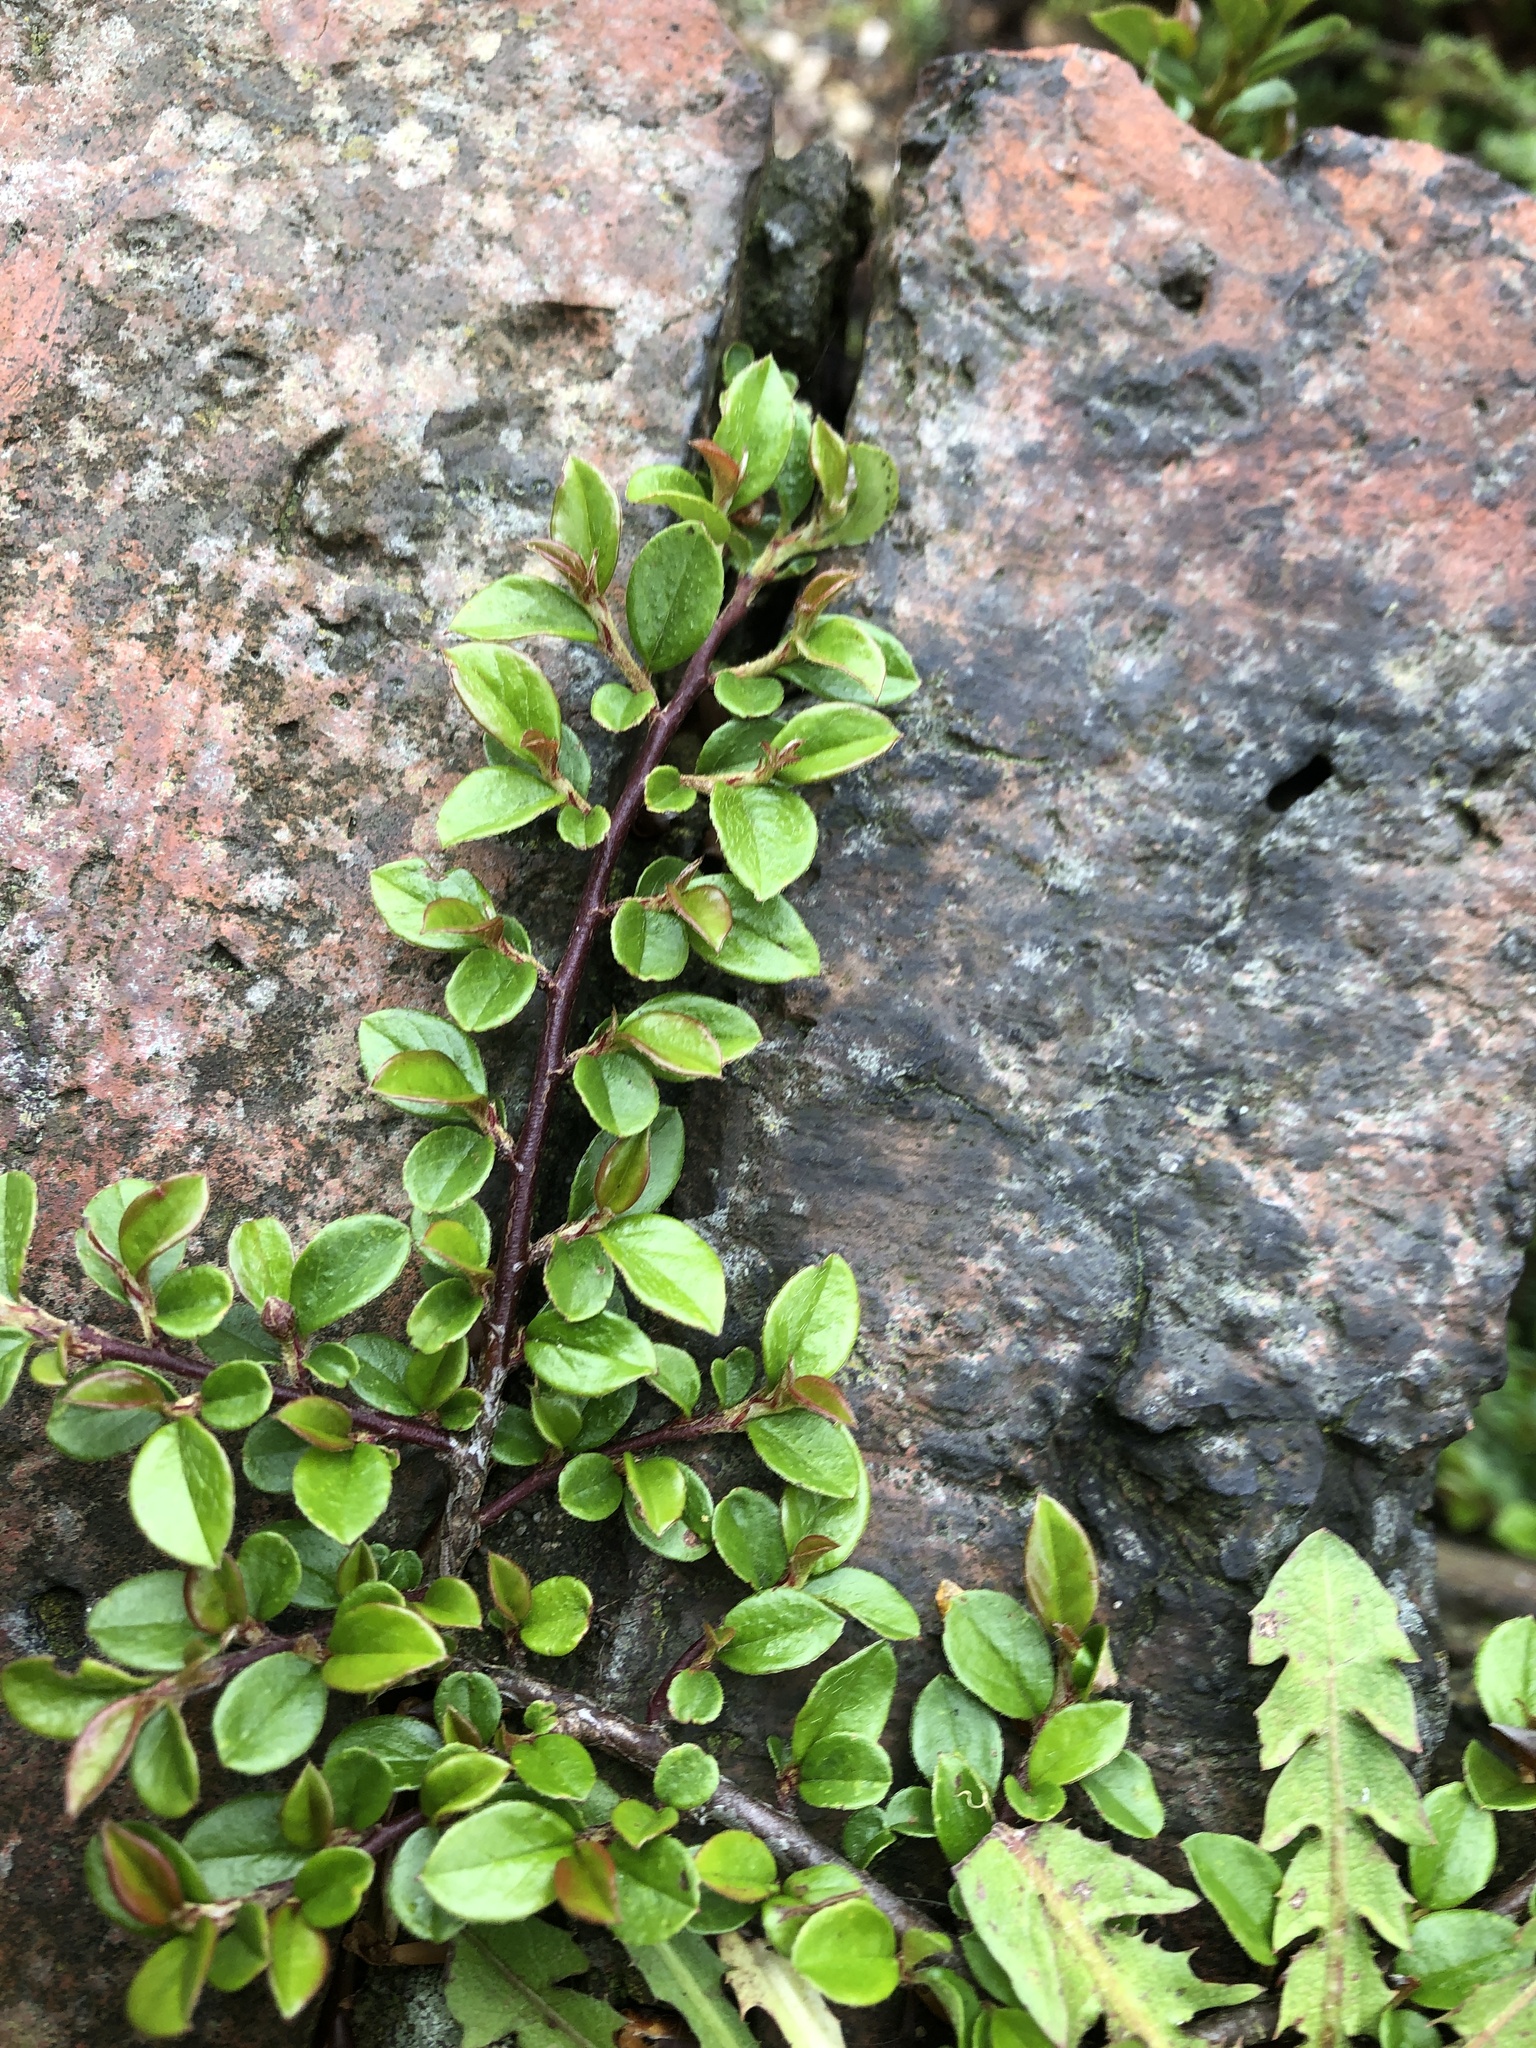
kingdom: Plantae
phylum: Tracheophyta
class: Magnoliopsida
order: Rosales
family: Rosaceae
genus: Cotoneaster
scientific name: Cotoneaster horizontalis
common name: Wall cotoneaster
